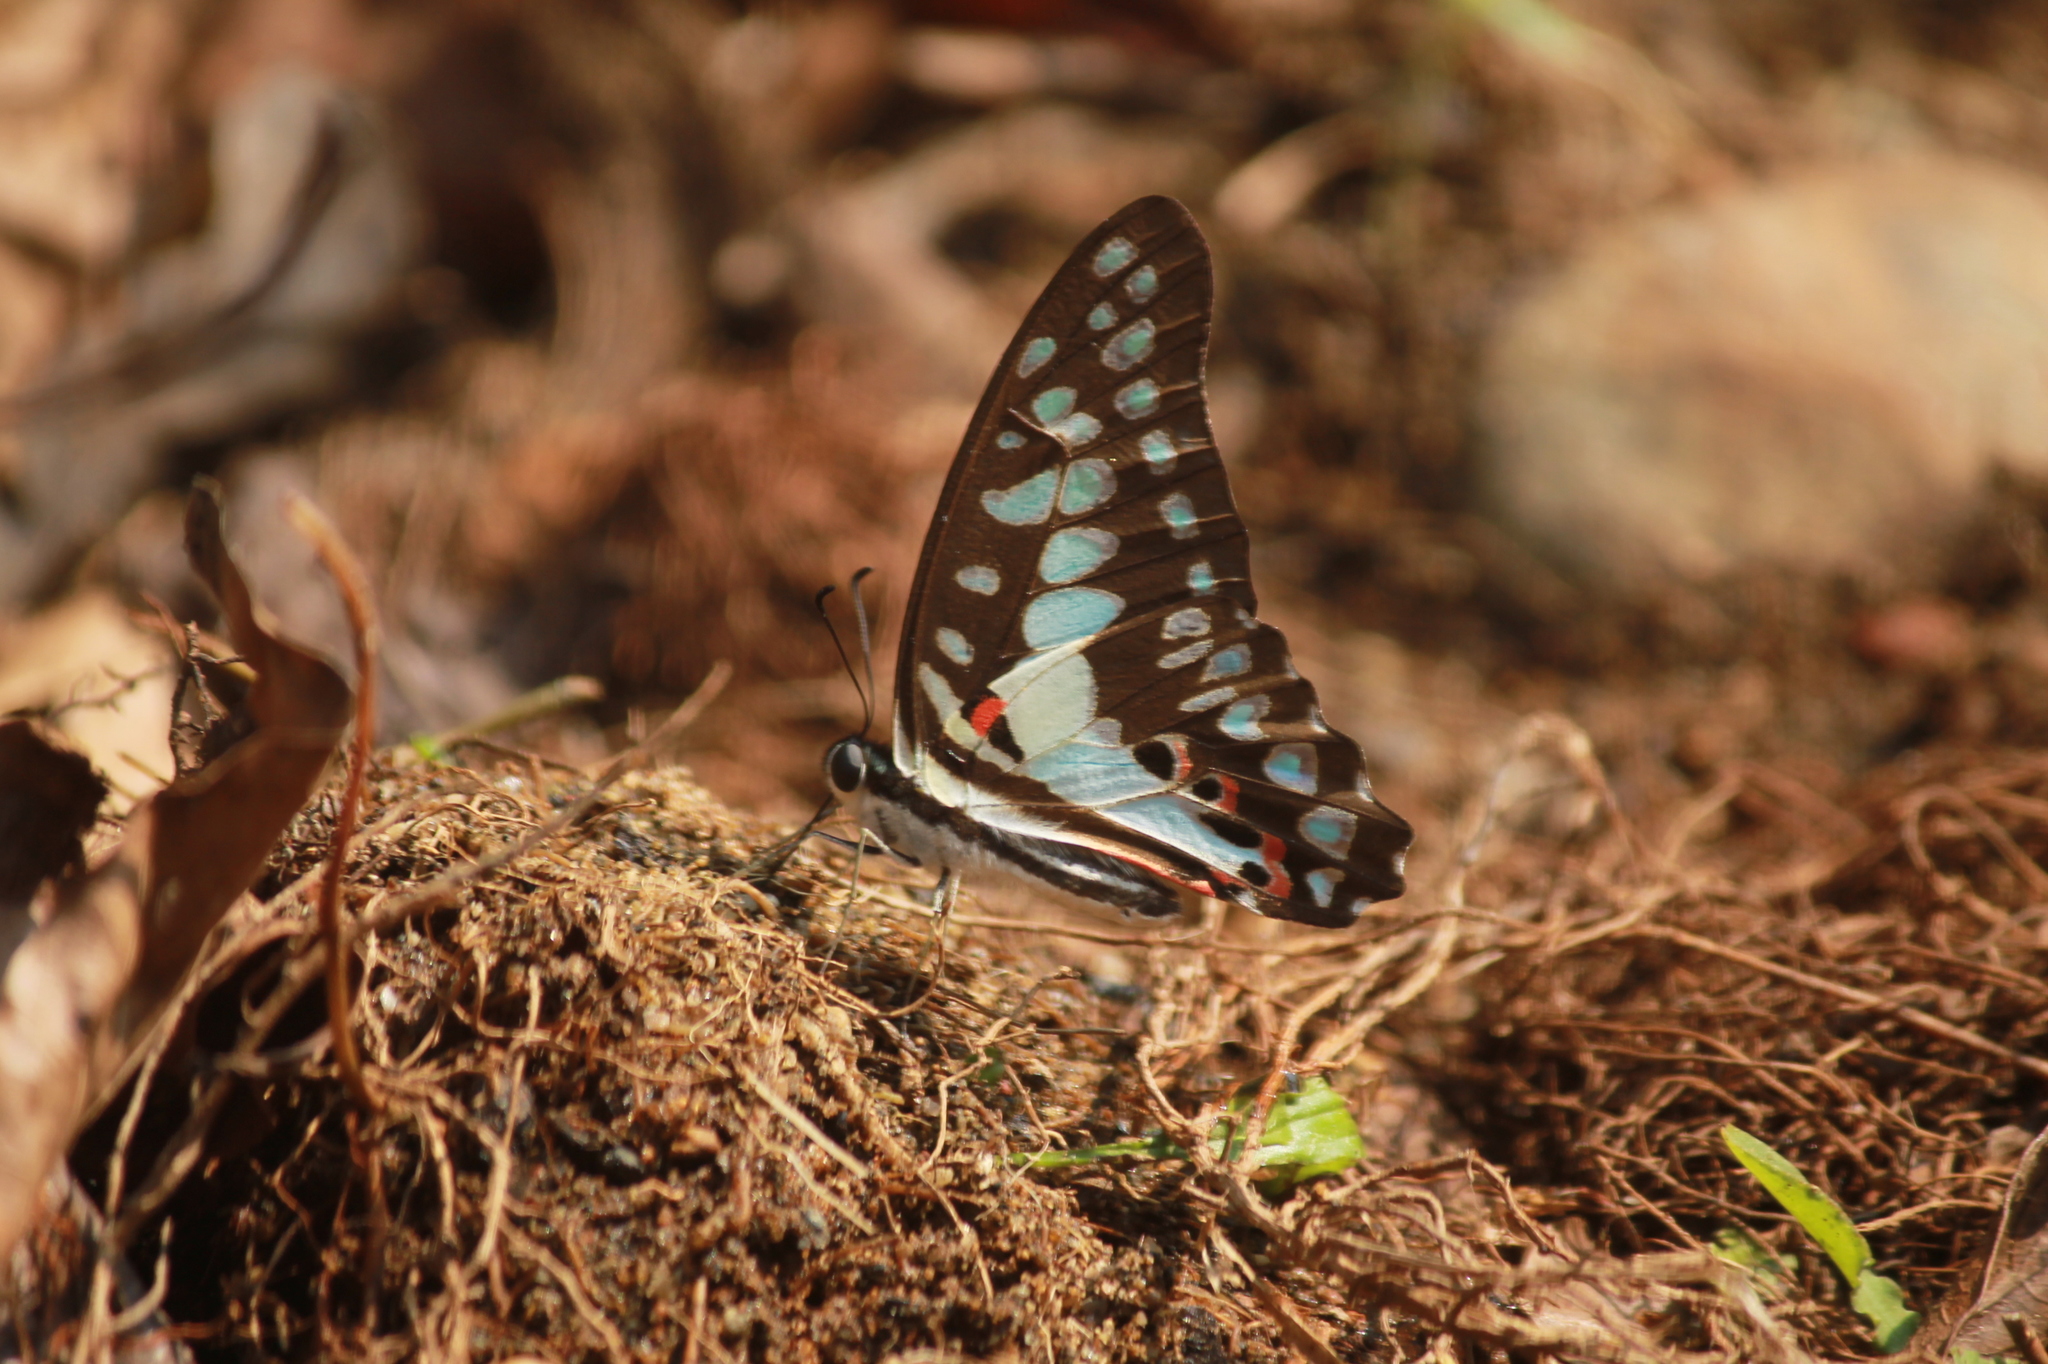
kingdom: Animalia
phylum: Arthropoda
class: Insecta
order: Lepidoptera
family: Papilionidae
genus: Graphium
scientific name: Graphium doson
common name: Common jay
